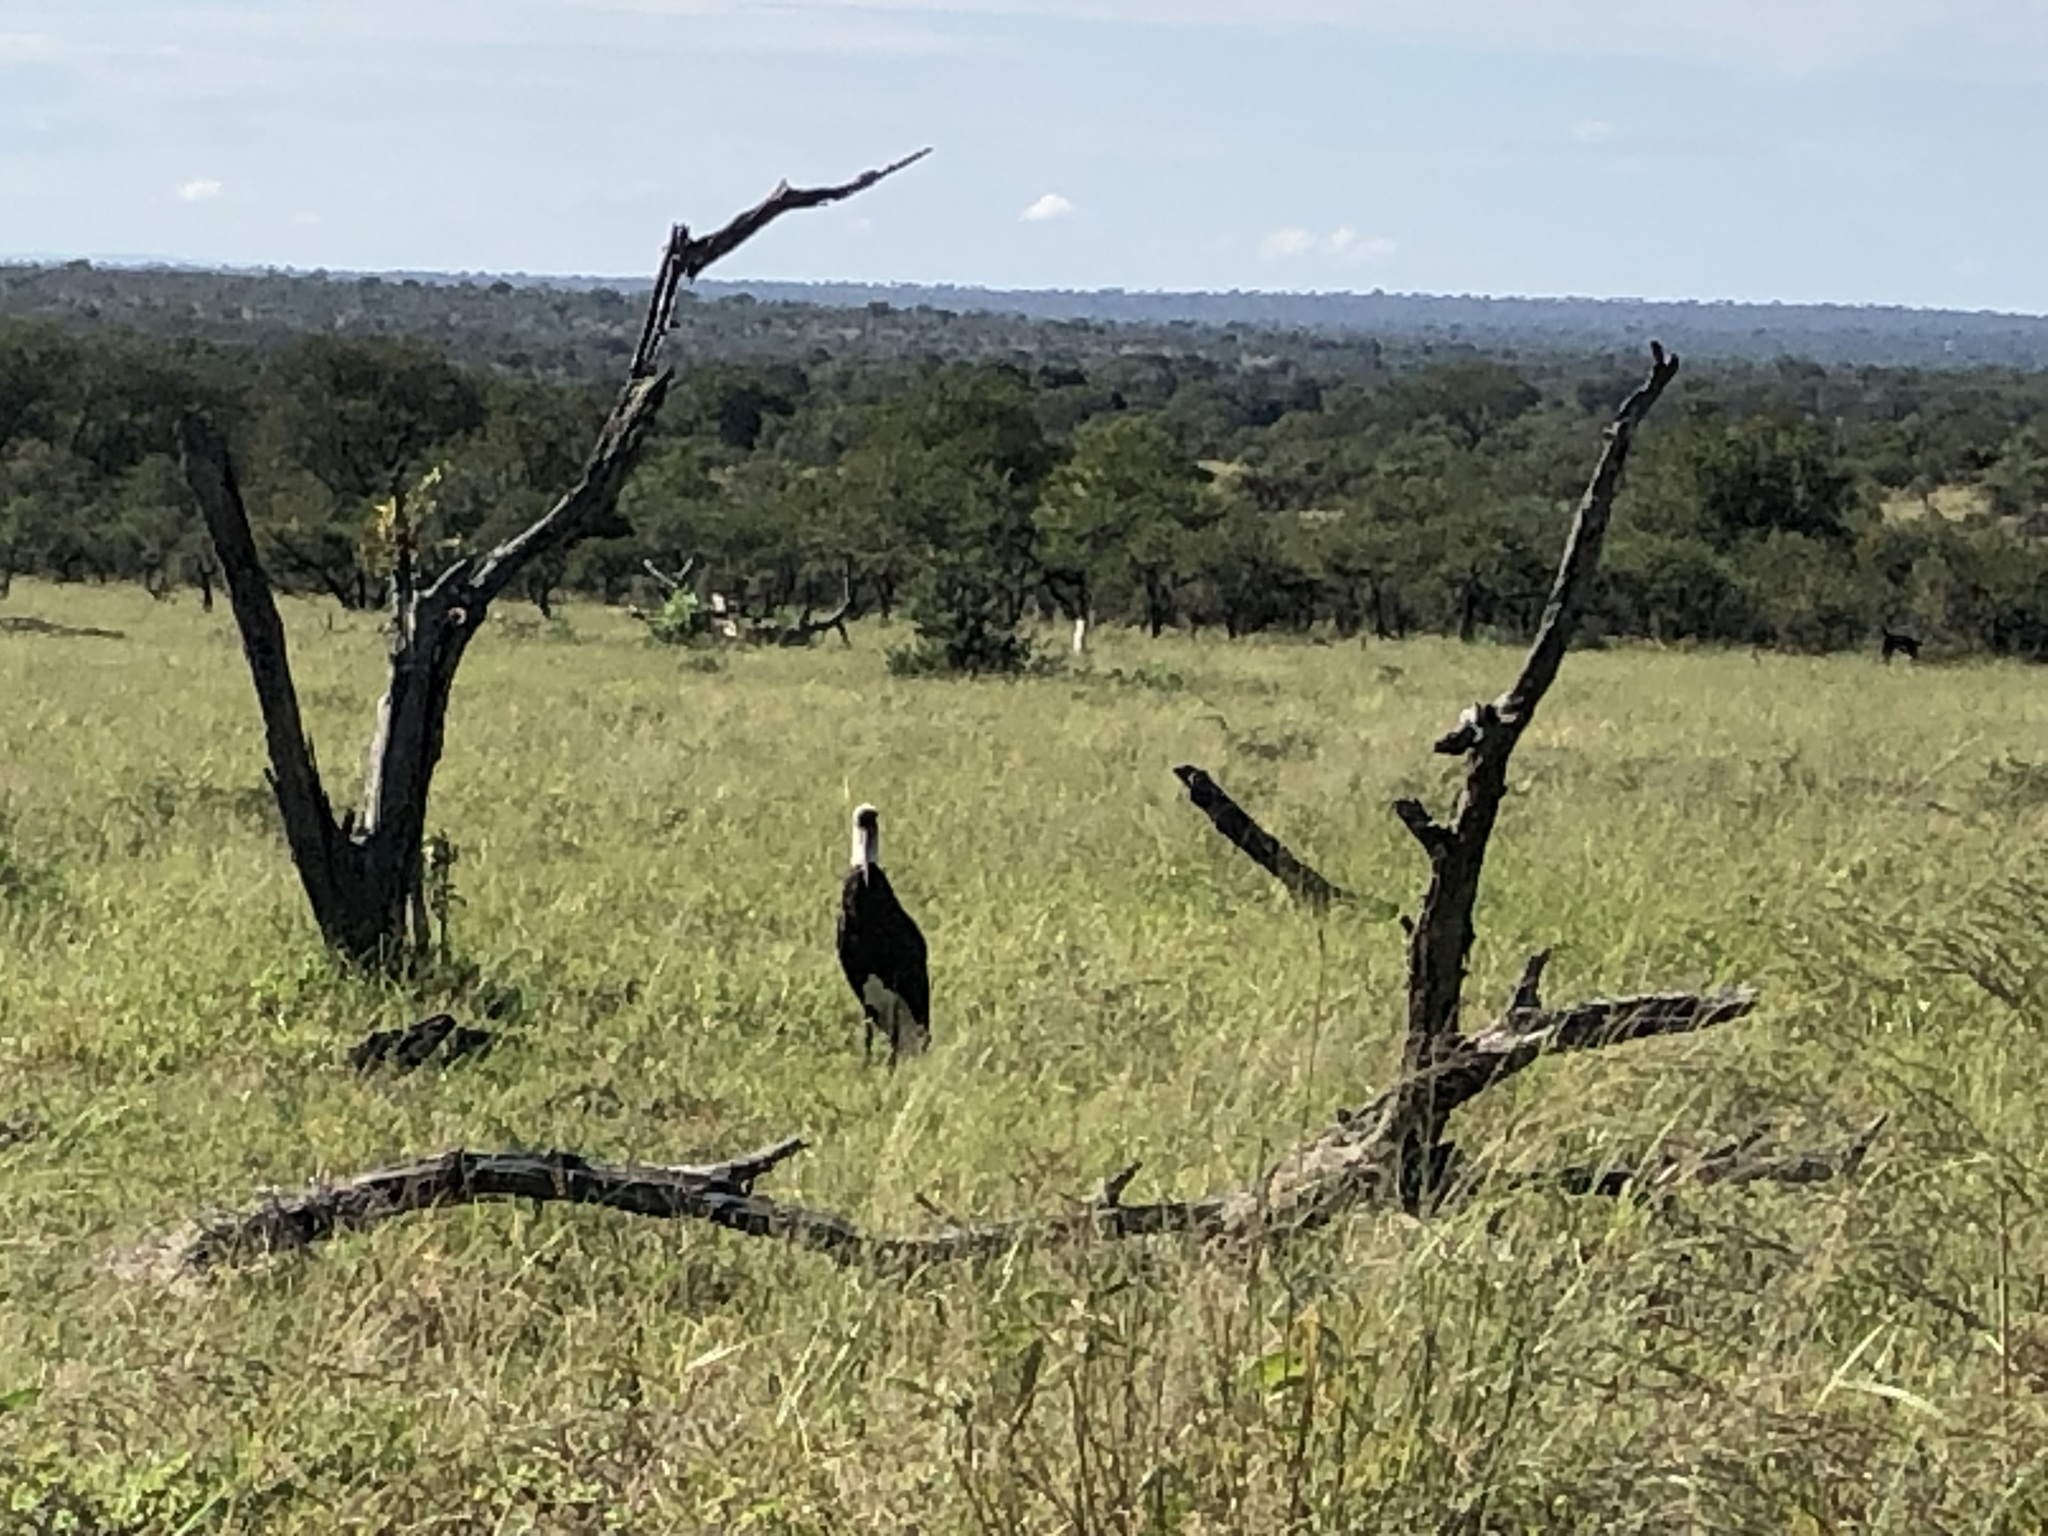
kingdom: Animalia
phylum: Chordata
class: Aves
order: Ciconiiformes
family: Ciconiidae
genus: Ciconia
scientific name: Ciconia microscelis
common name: African woollyneck
